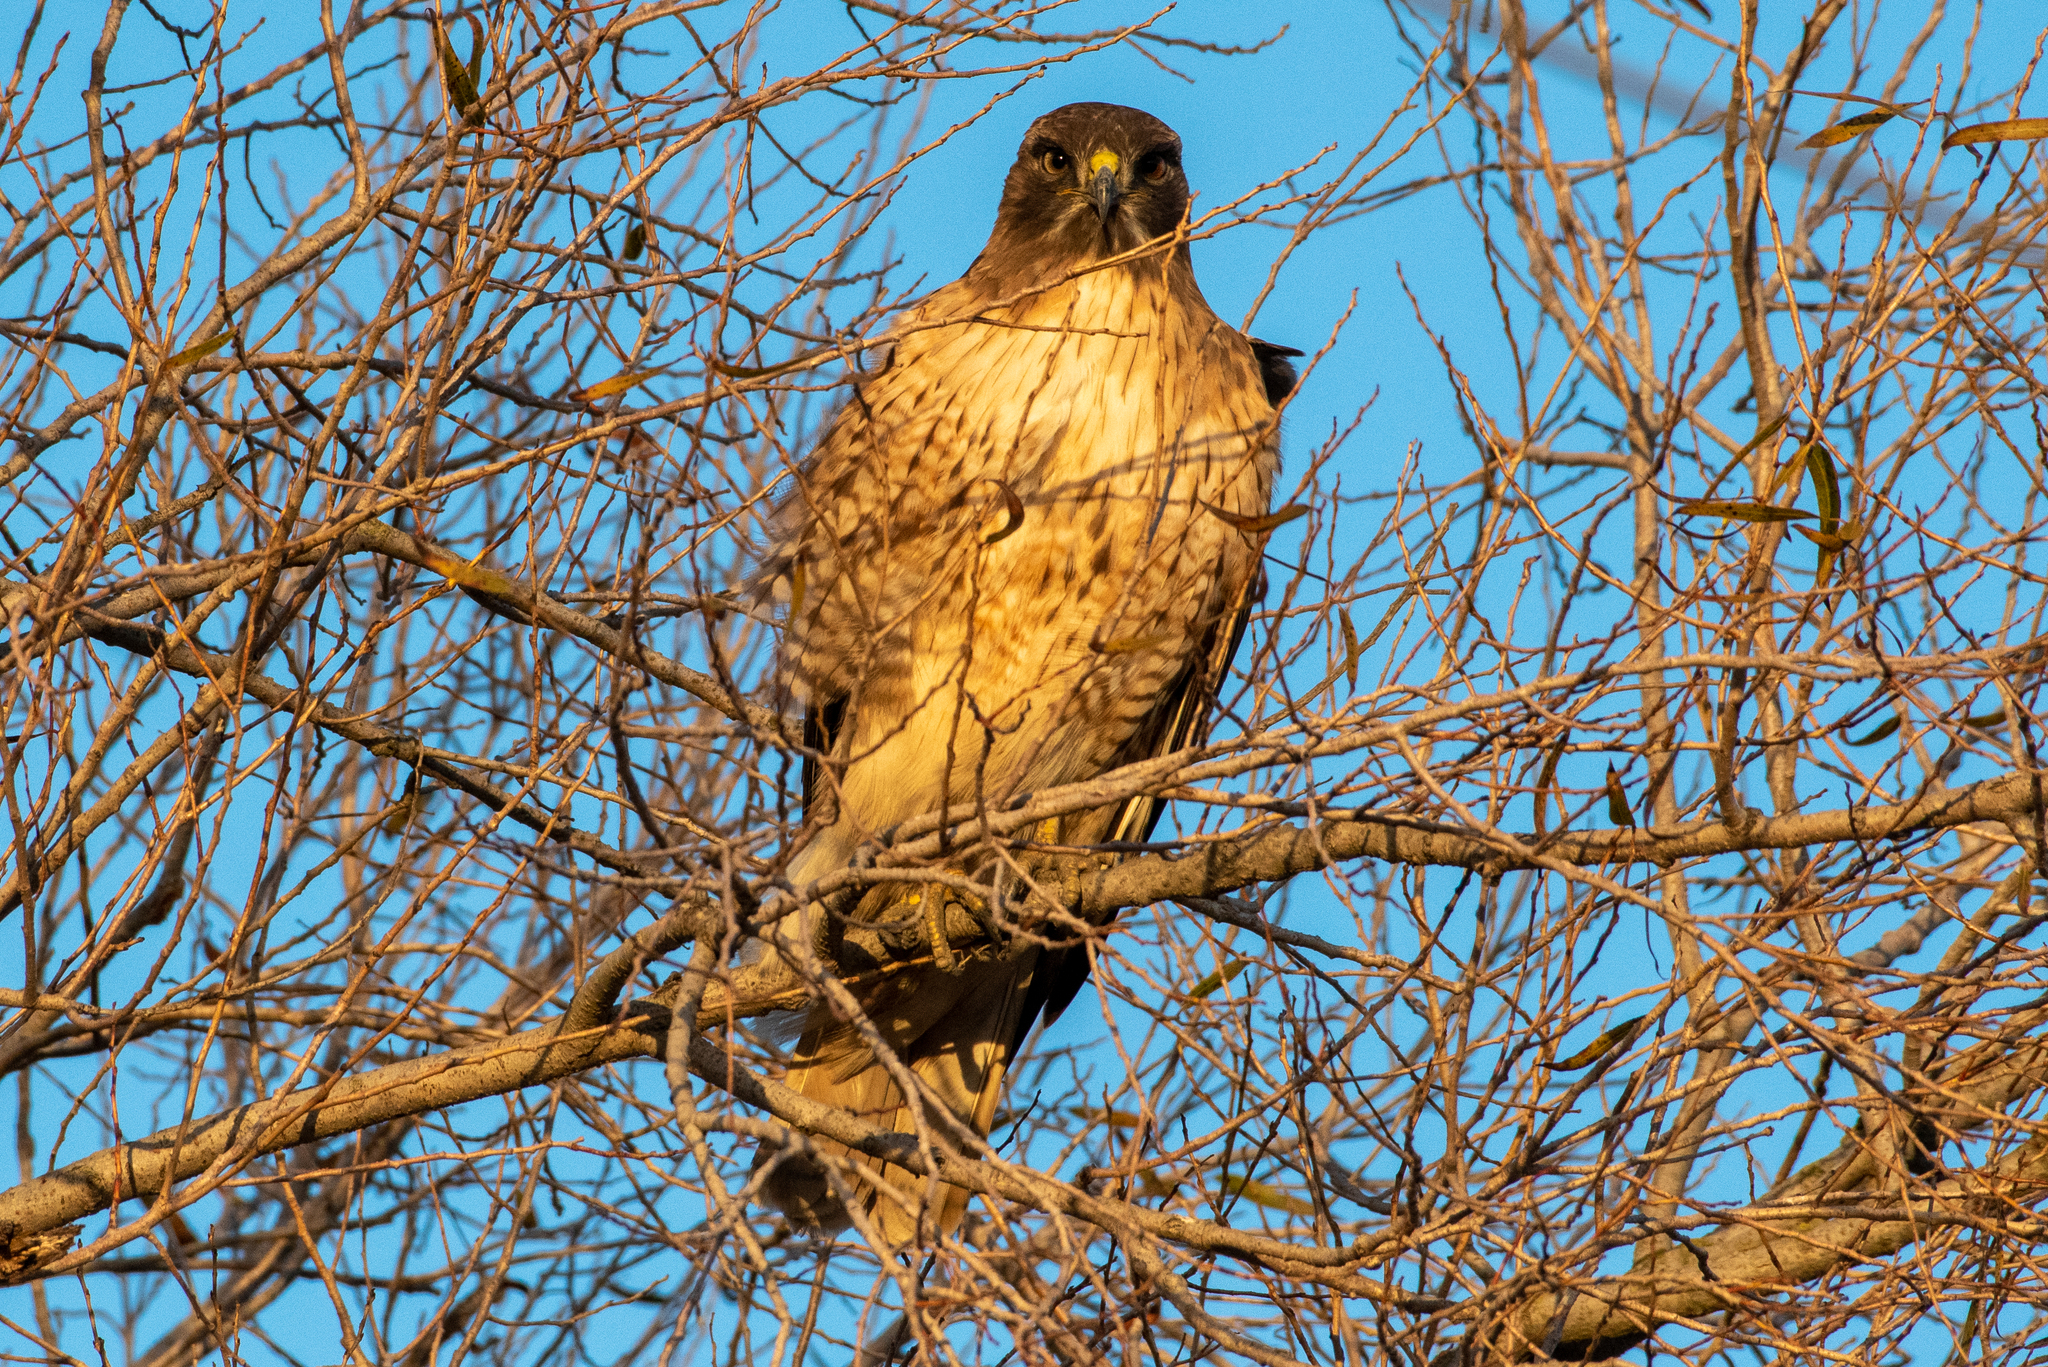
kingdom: Animalia
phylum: Chordata
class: Aves
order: Accipitriformes
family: Accipitridae
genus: Buteo
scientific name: Buteo jamaicensis
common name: Red-tailed hawk
